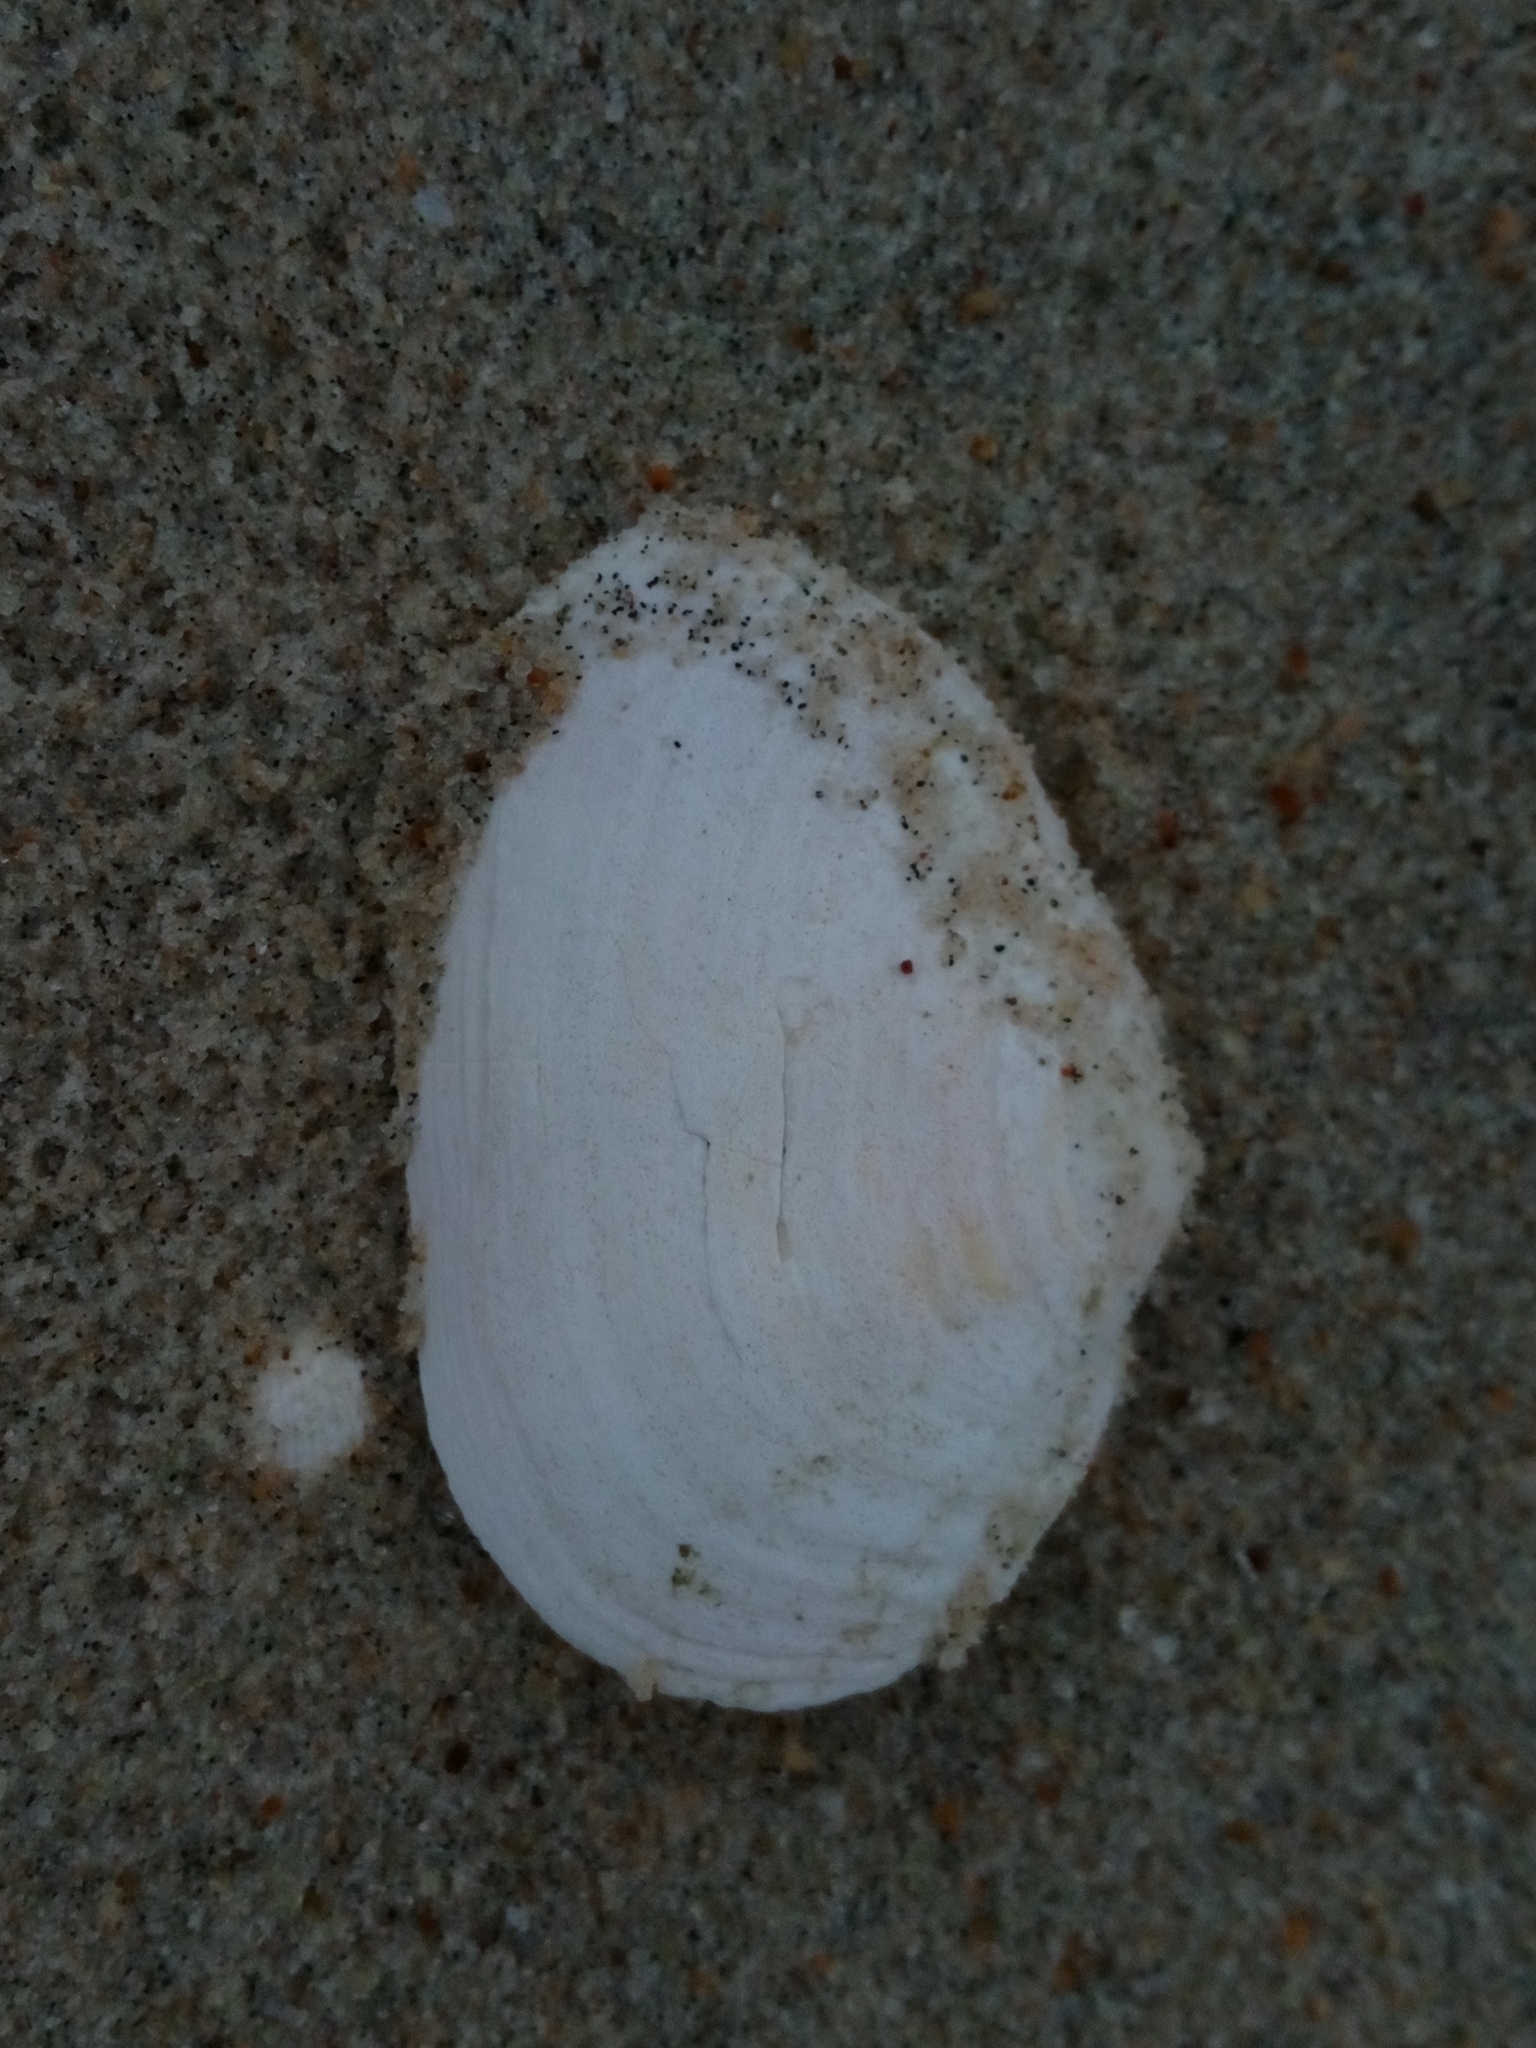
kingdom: Animalia
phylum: Mollusca
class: Bivalvia
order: Myida
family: Myidae
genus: Mya
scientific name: Mya arenaria
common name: Soft-shelled clam
